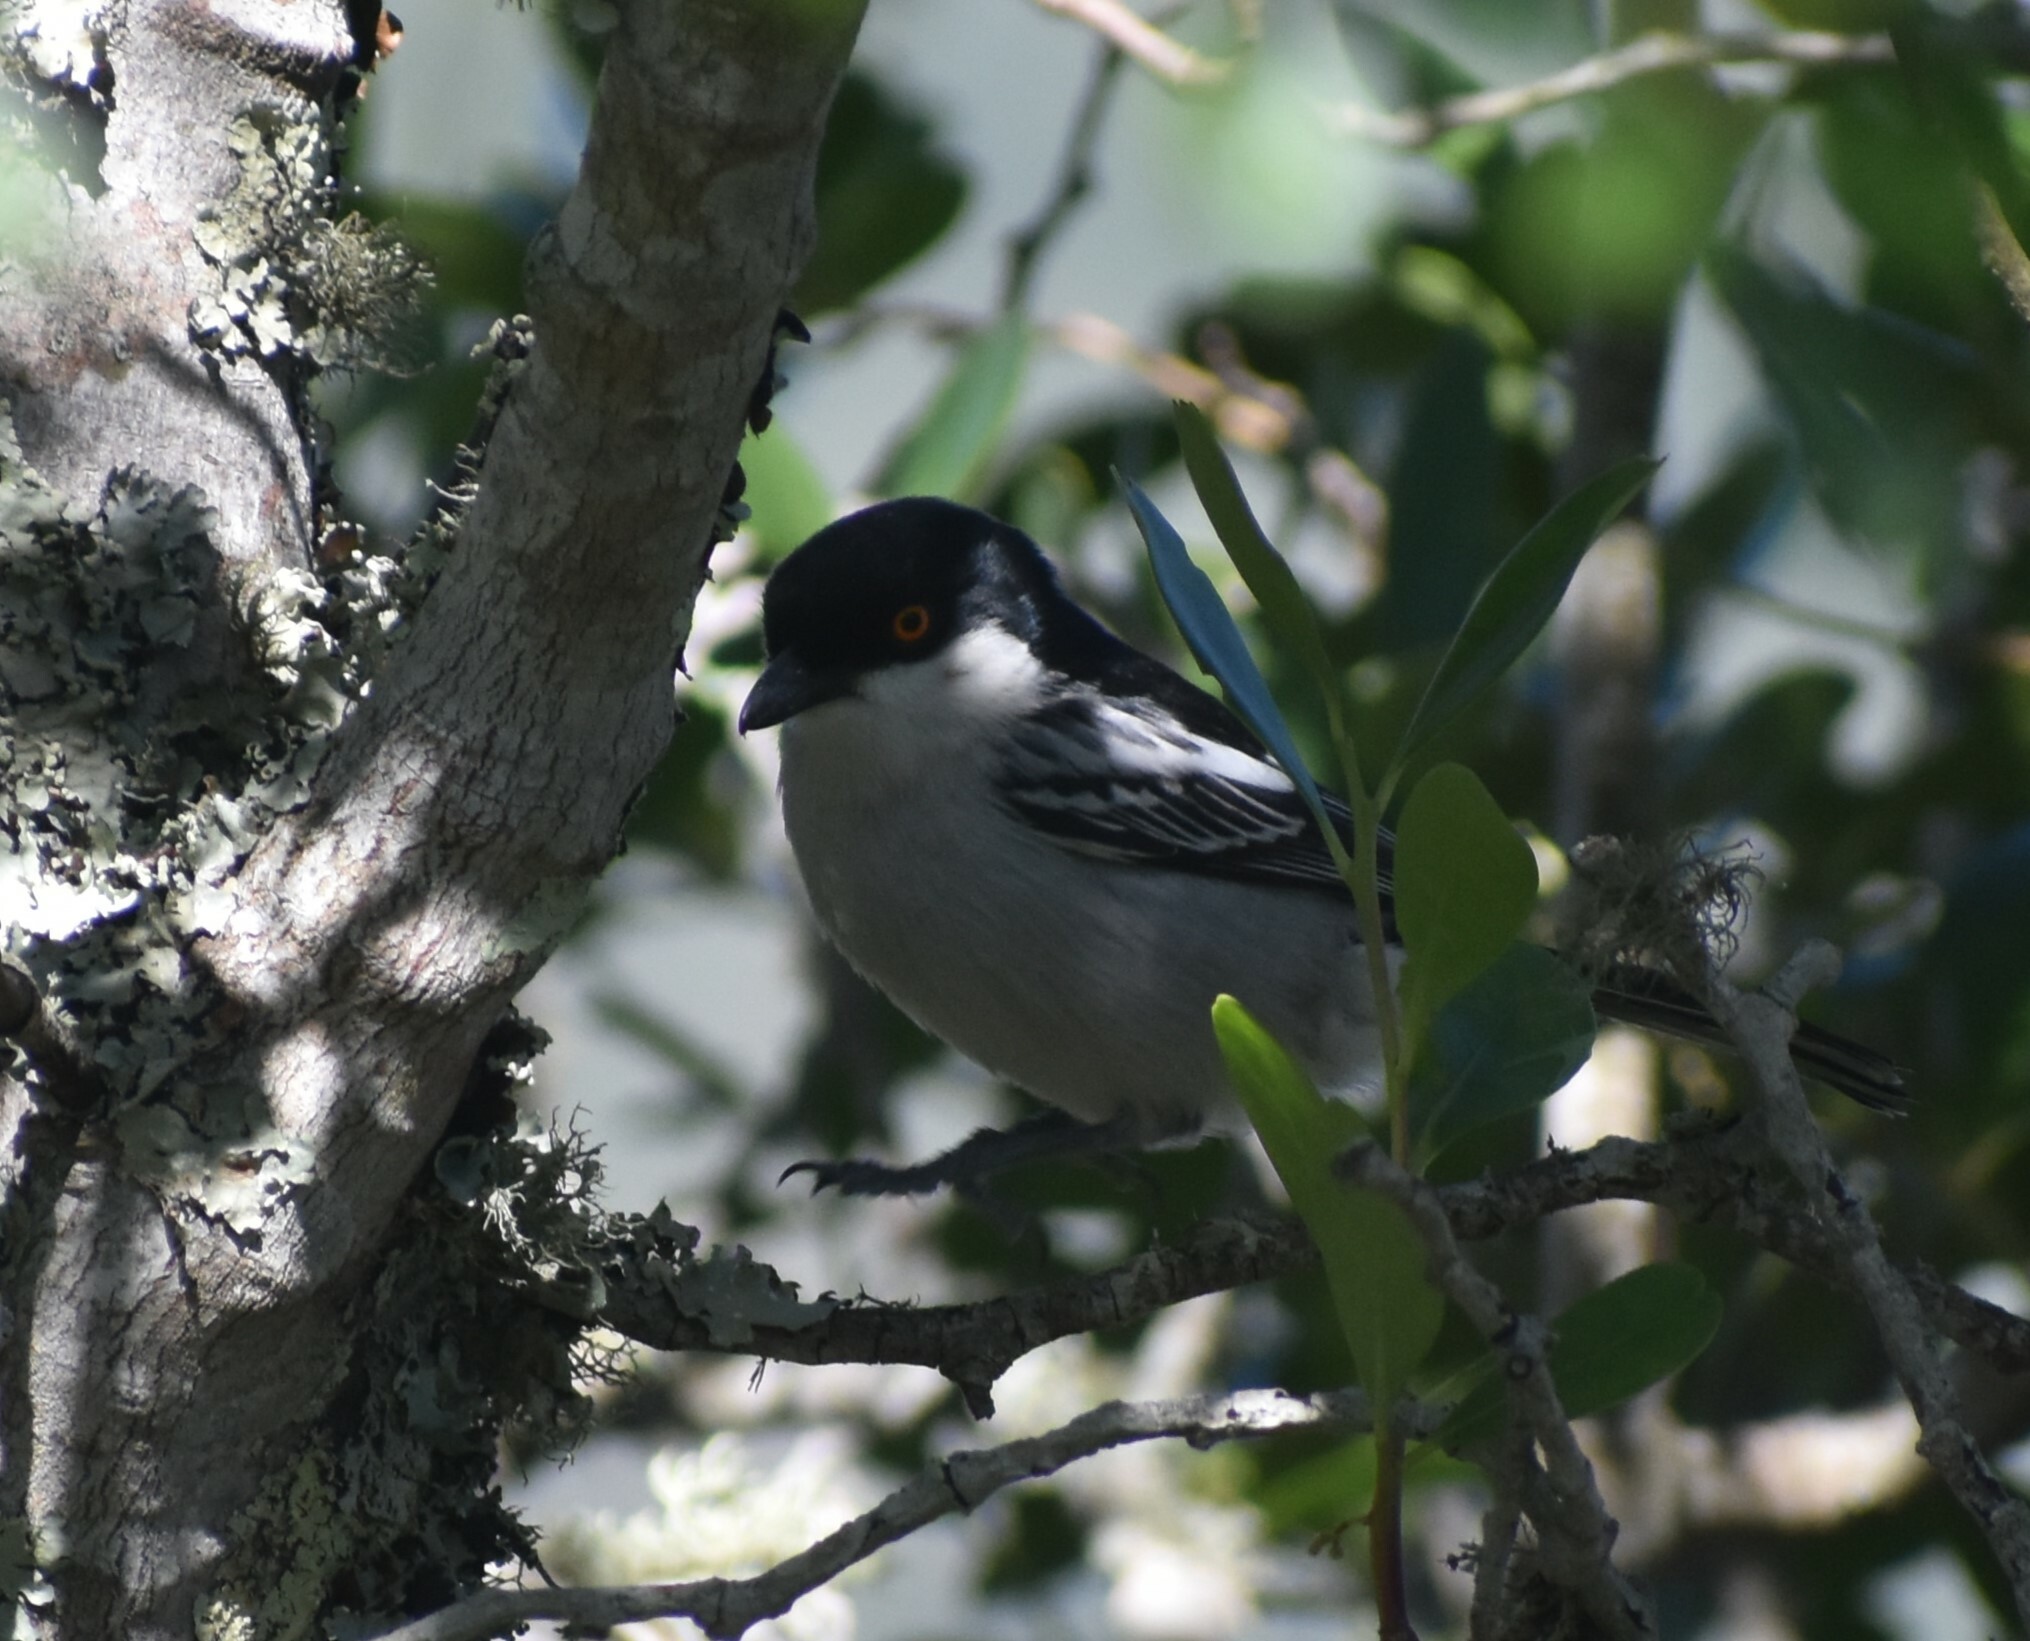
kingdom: Animalia
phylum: Chordata
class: Aves
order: Passeriformes
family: Malaconotidae
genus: Dryoscopus
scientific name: Dryoscopus cubla
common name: Black-backed puffback
